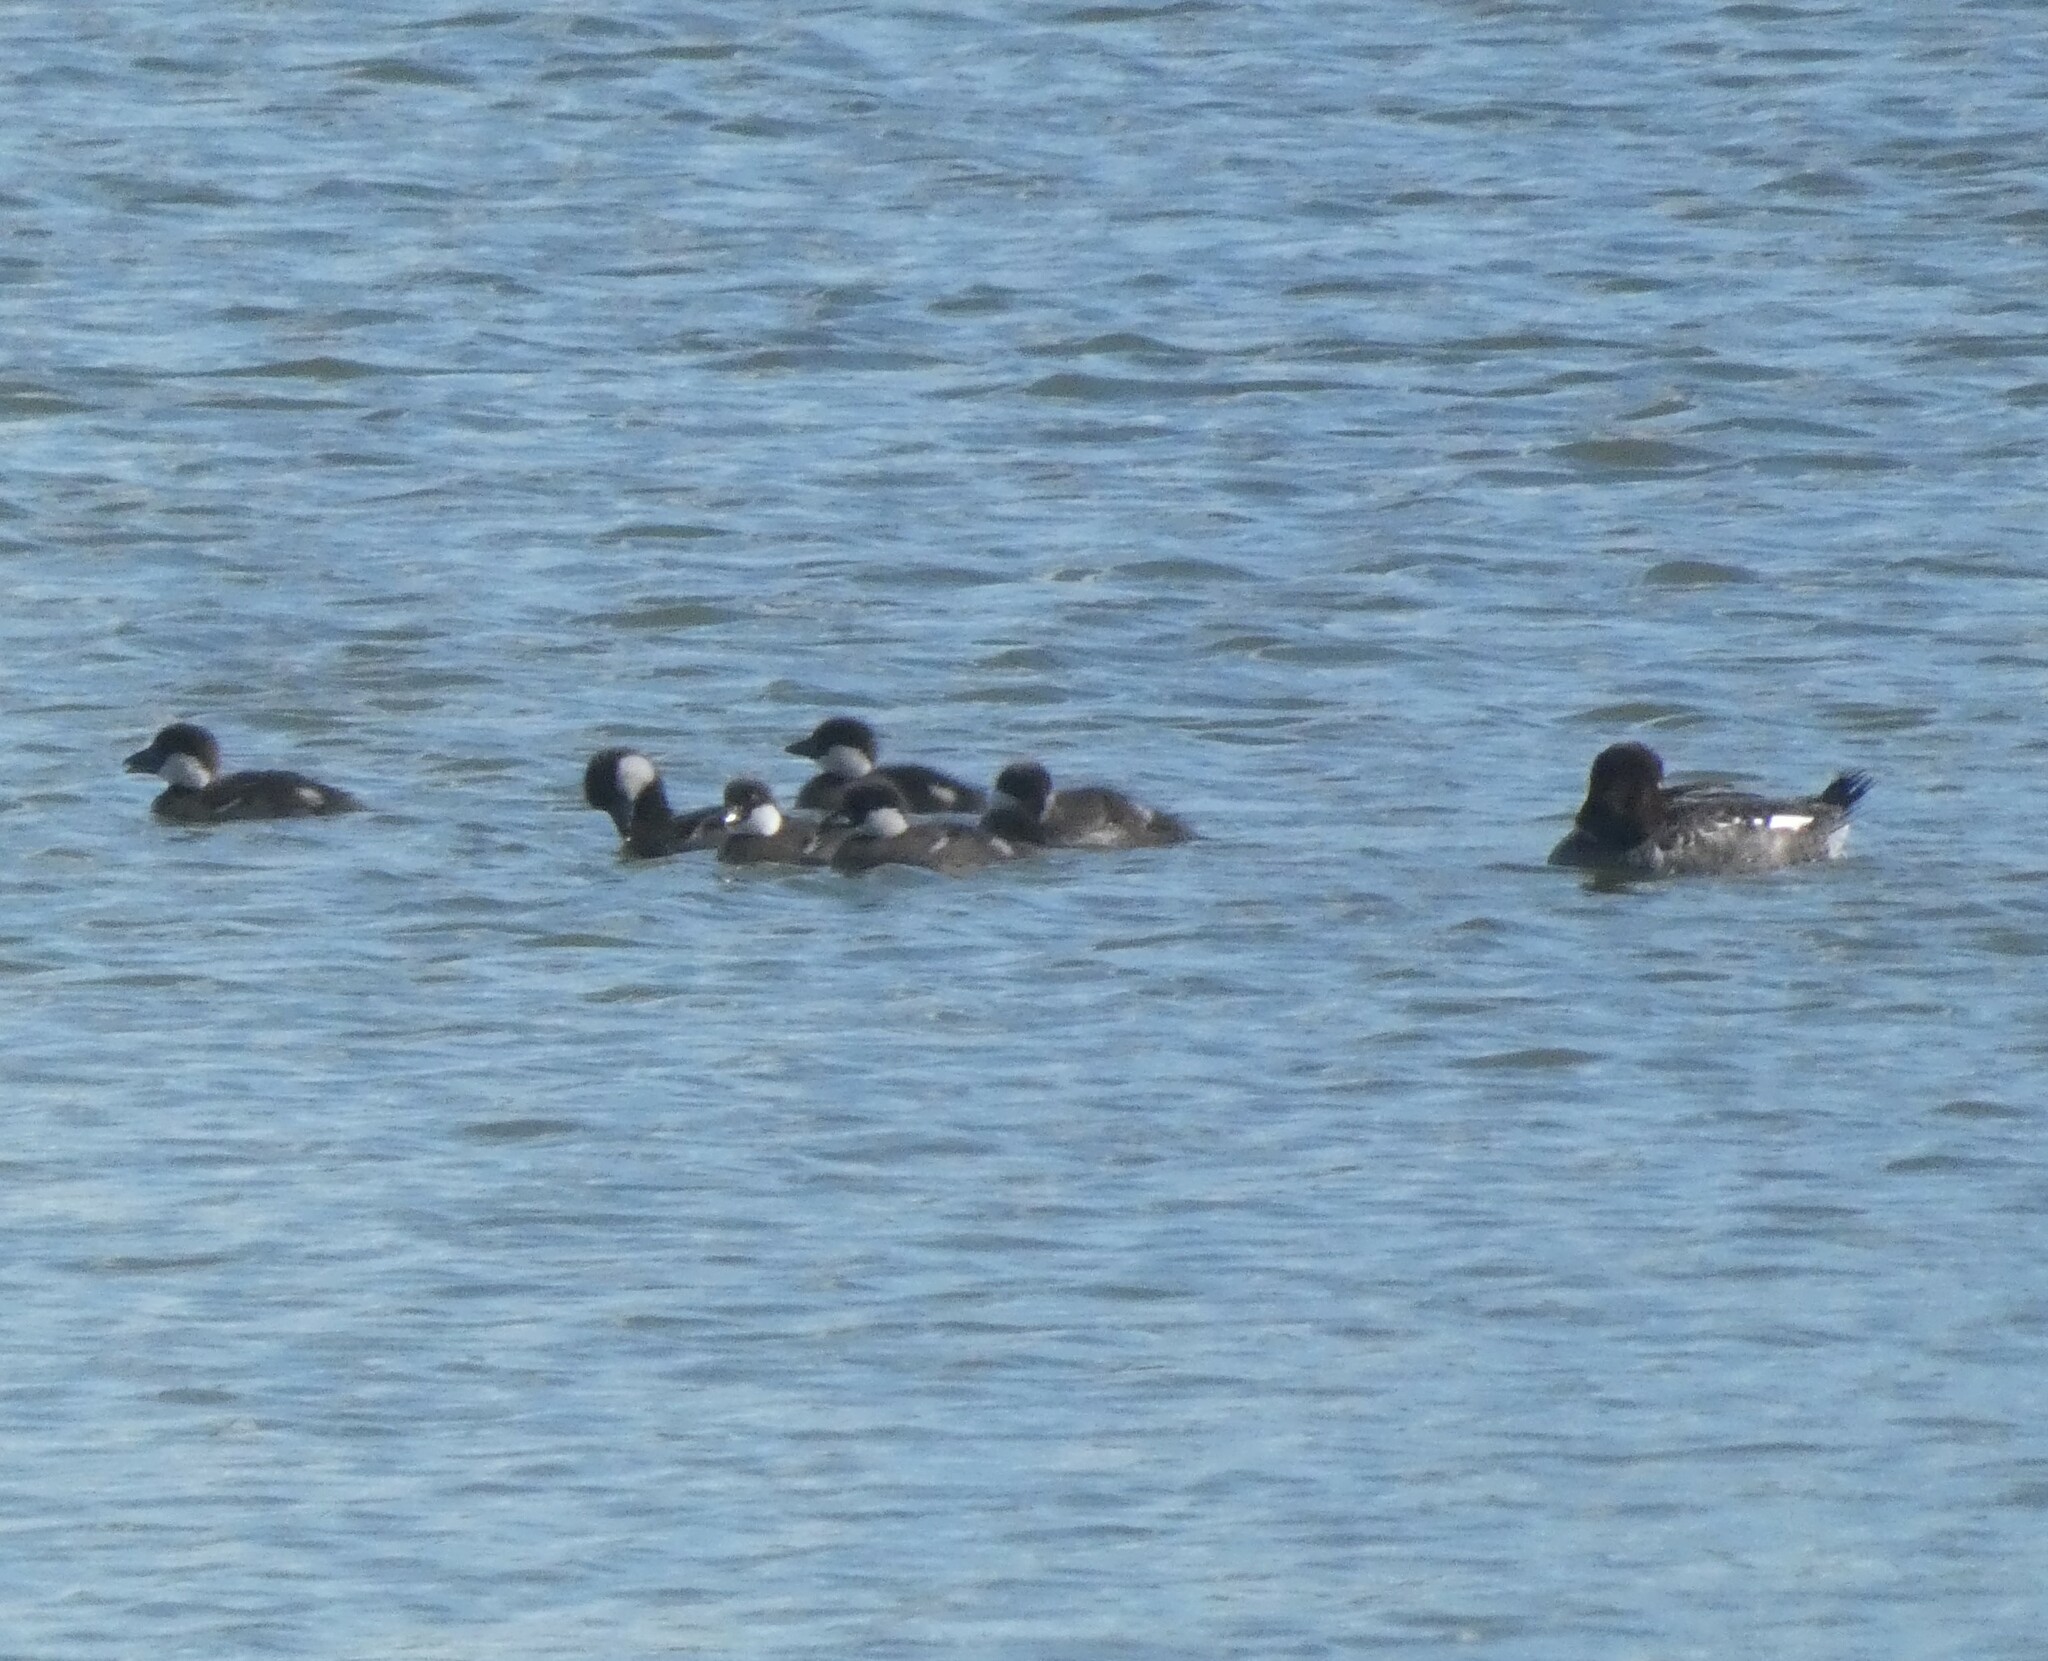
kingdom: Animalia
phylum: Chordata
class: Aves
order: Anseriformes
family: Anatidae
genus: Bucephala
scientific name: Bucephala clangula
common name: Common goldeneye
